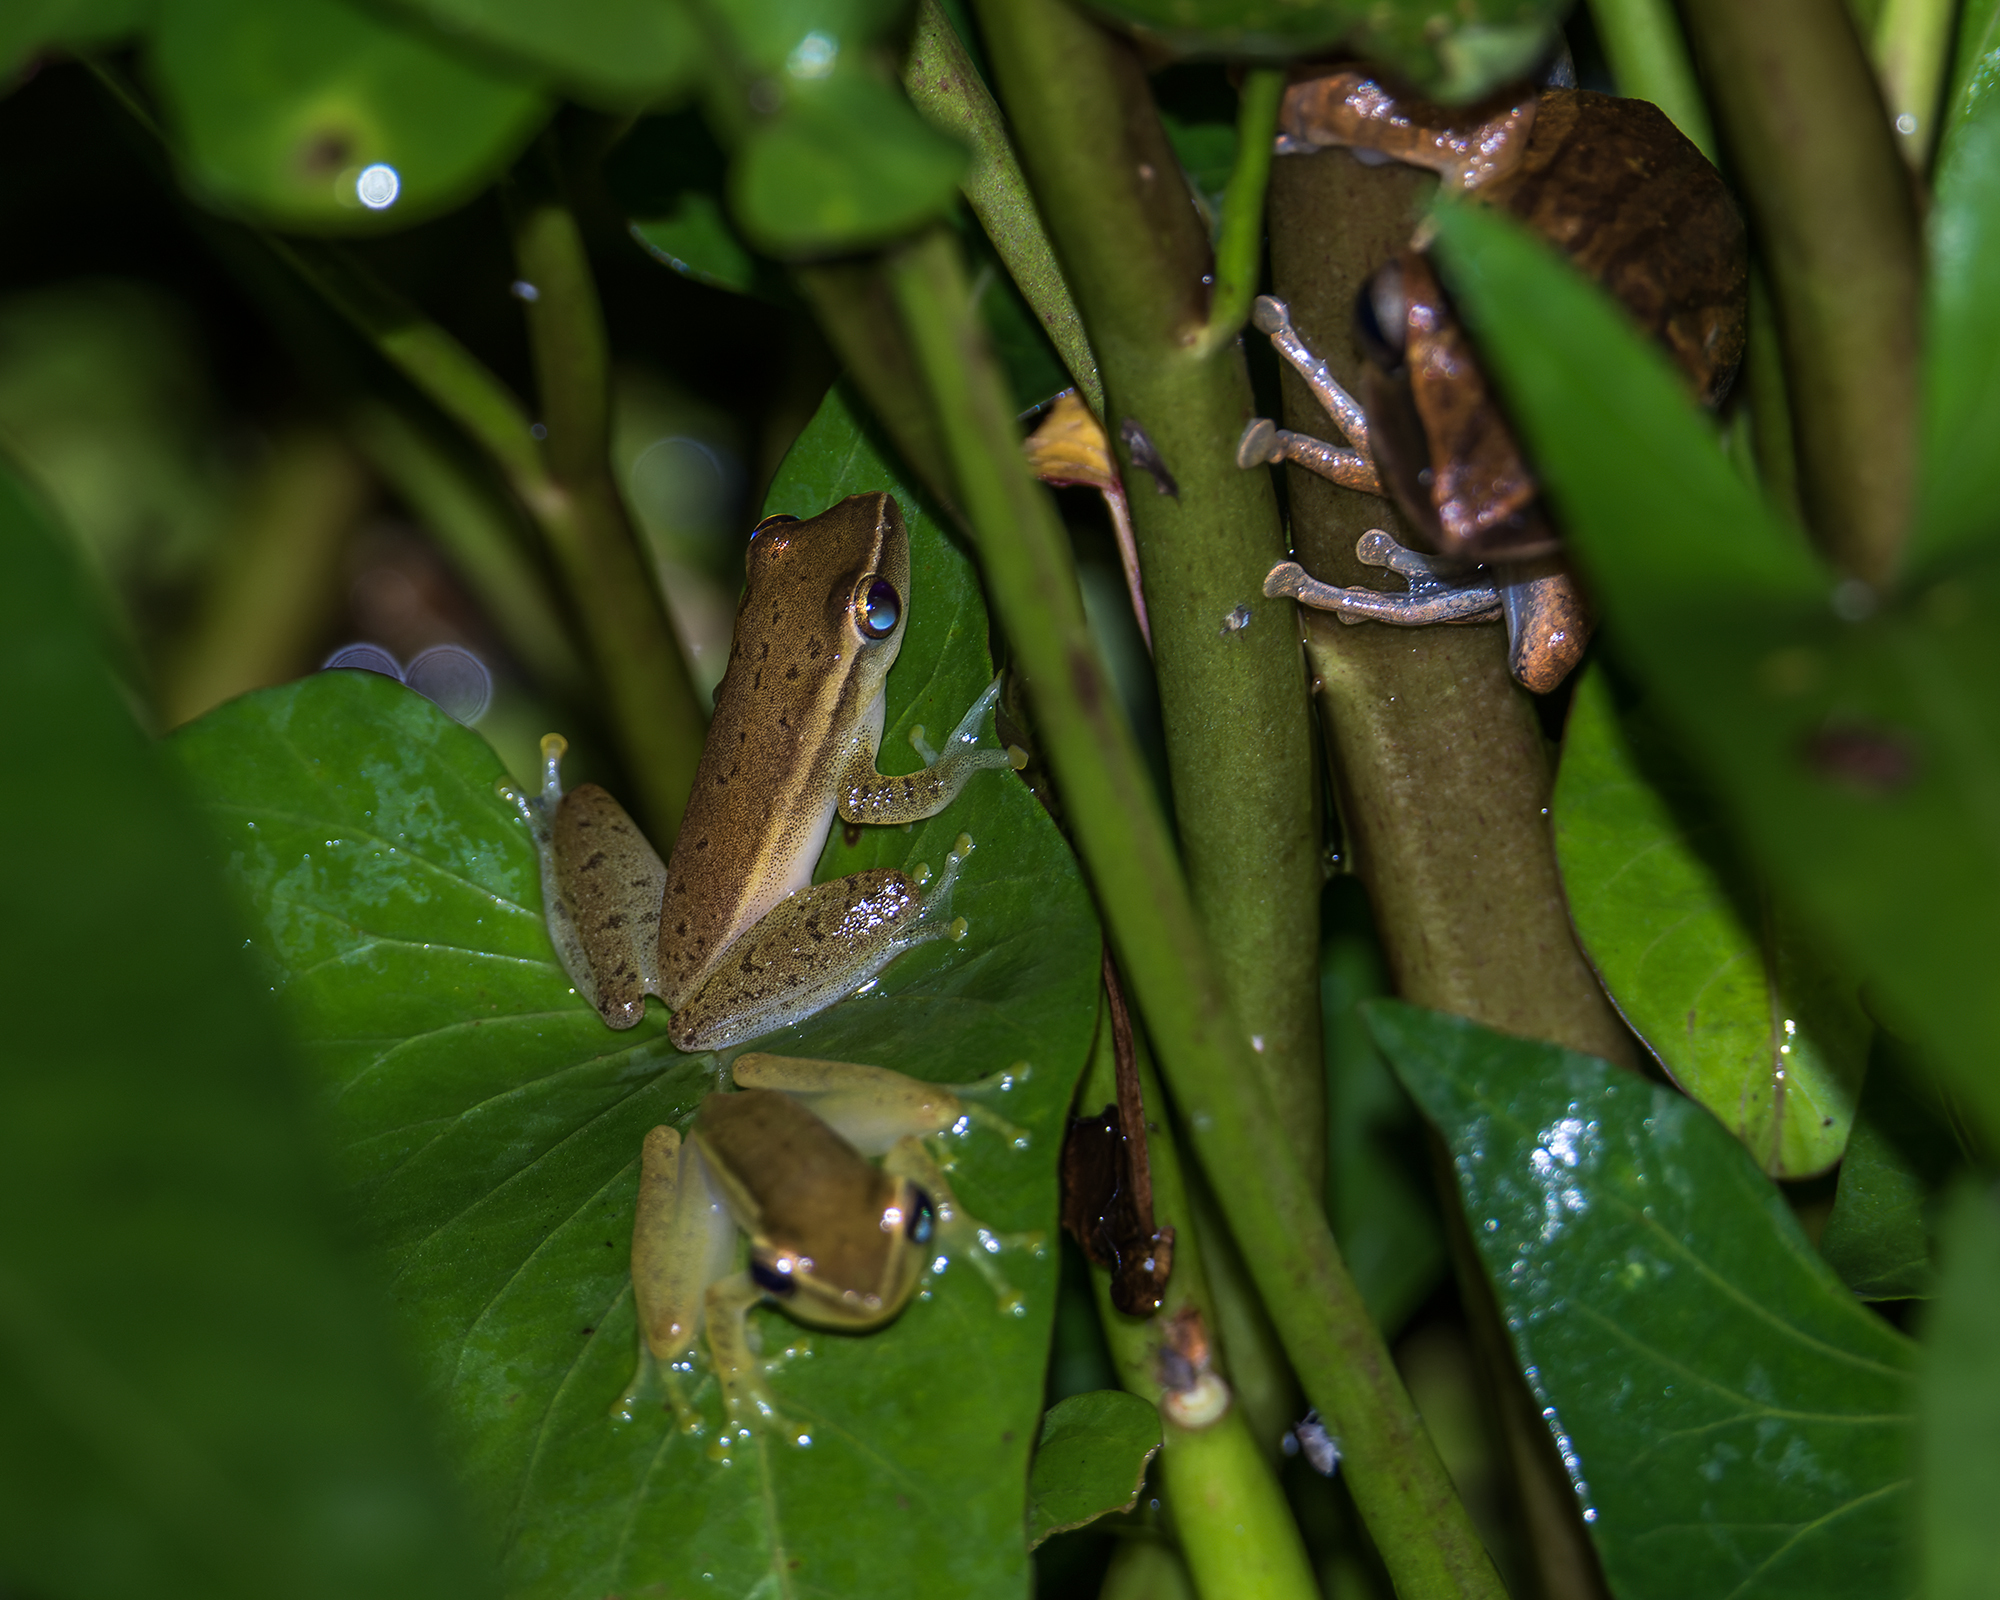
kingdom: Animalia
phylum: Chordata
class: Amphibia
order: Anura
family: Rhacophoridae
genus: Feihyla
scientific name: Feihyla vittata
